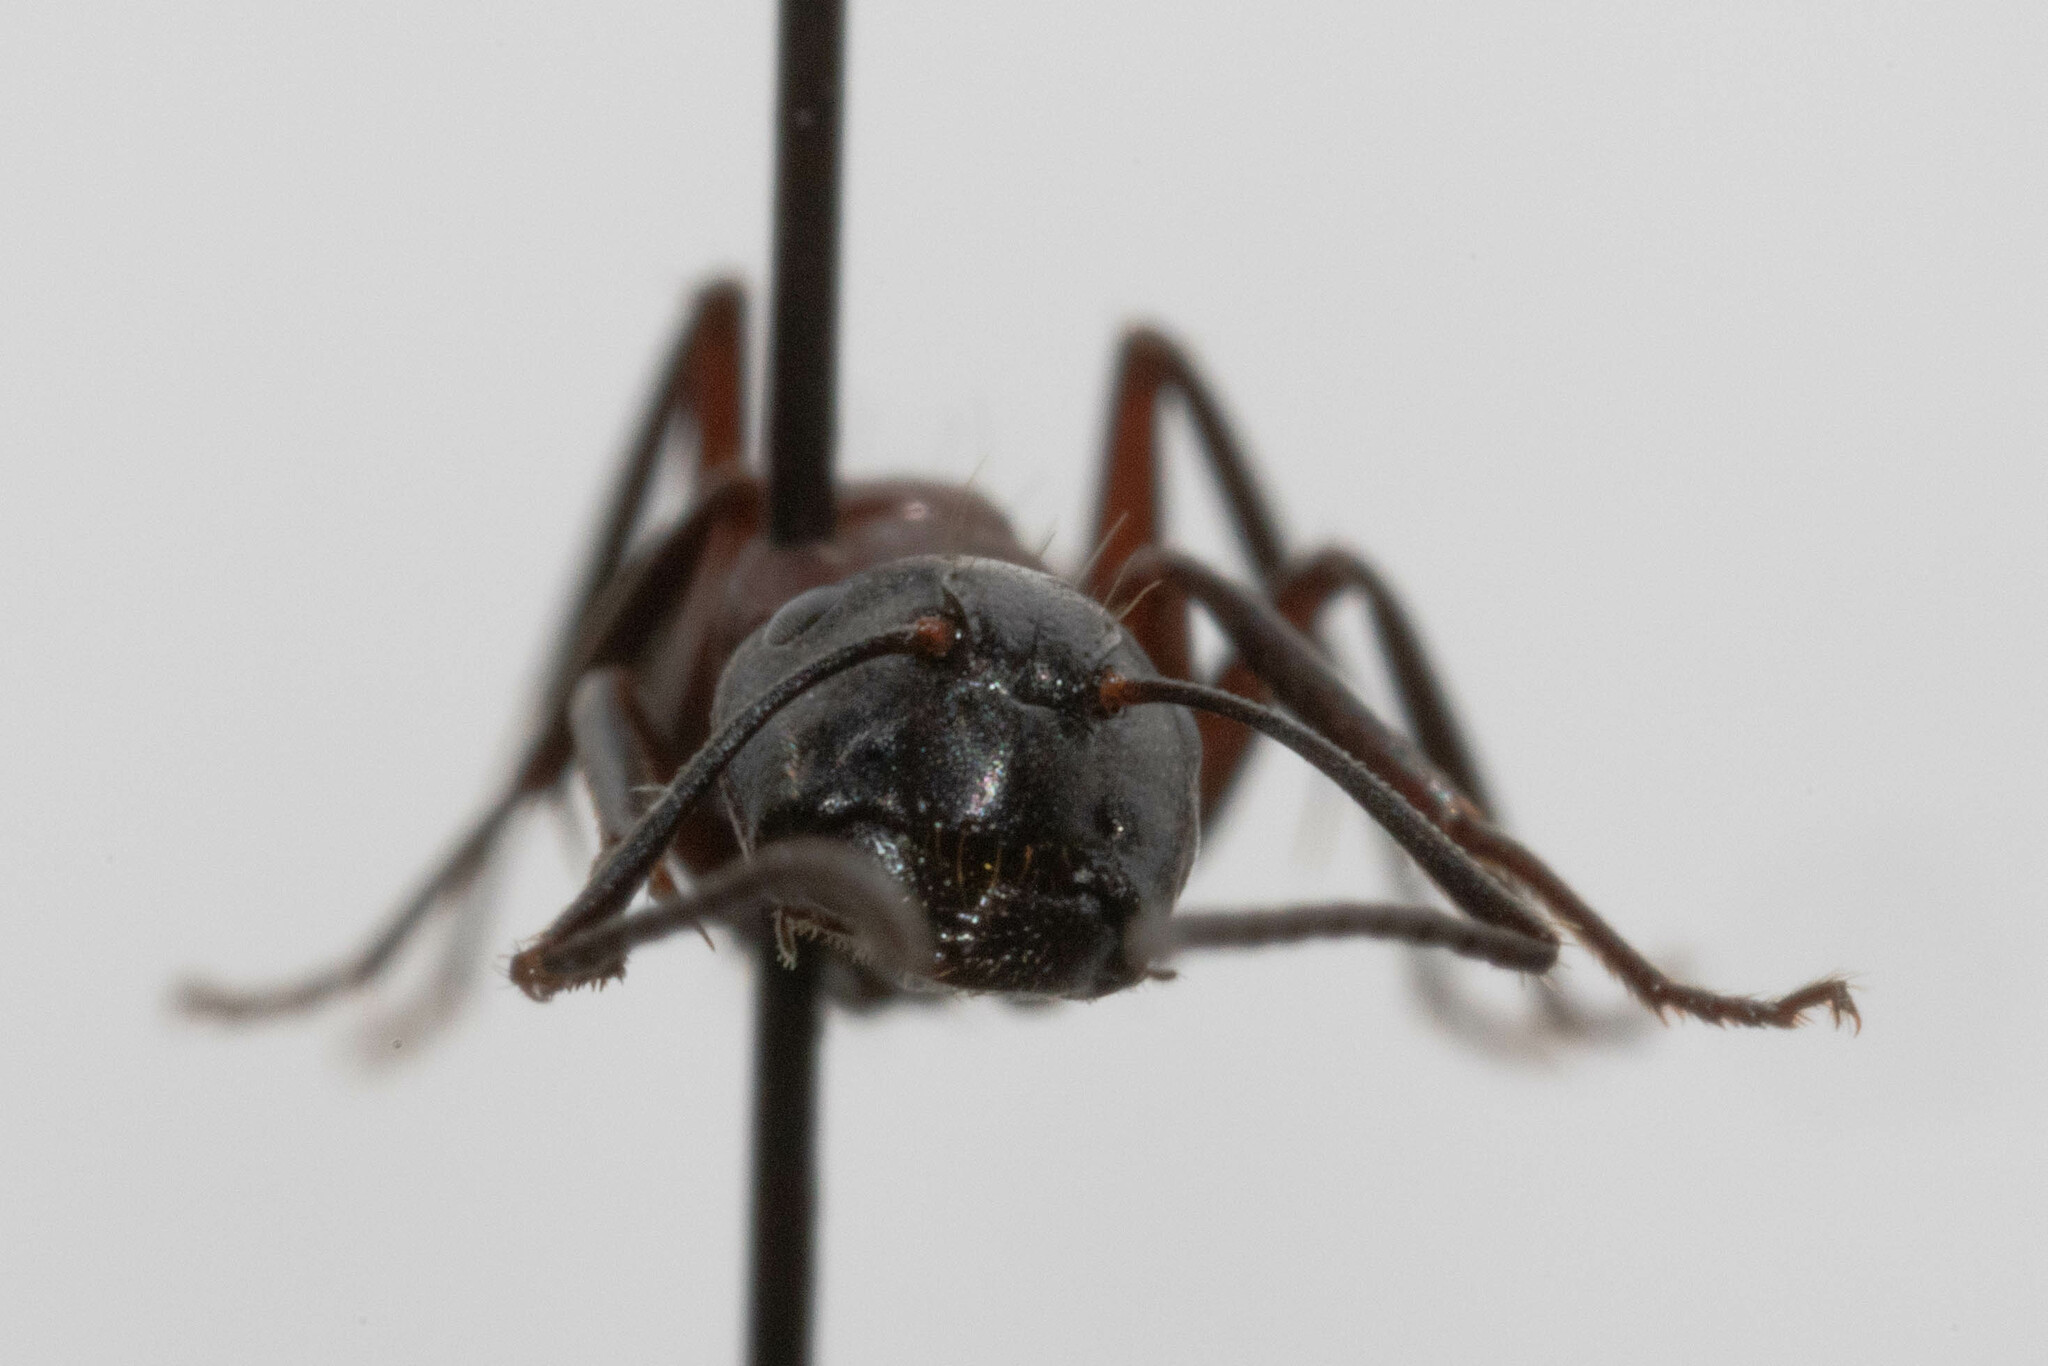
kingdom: Animalia
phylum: Arthropoda
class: Insecta
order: Hymenoptera
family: Formicidae
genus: Camponotus
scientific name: Camponotus novaeboracensis
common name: New york carpenter ant
